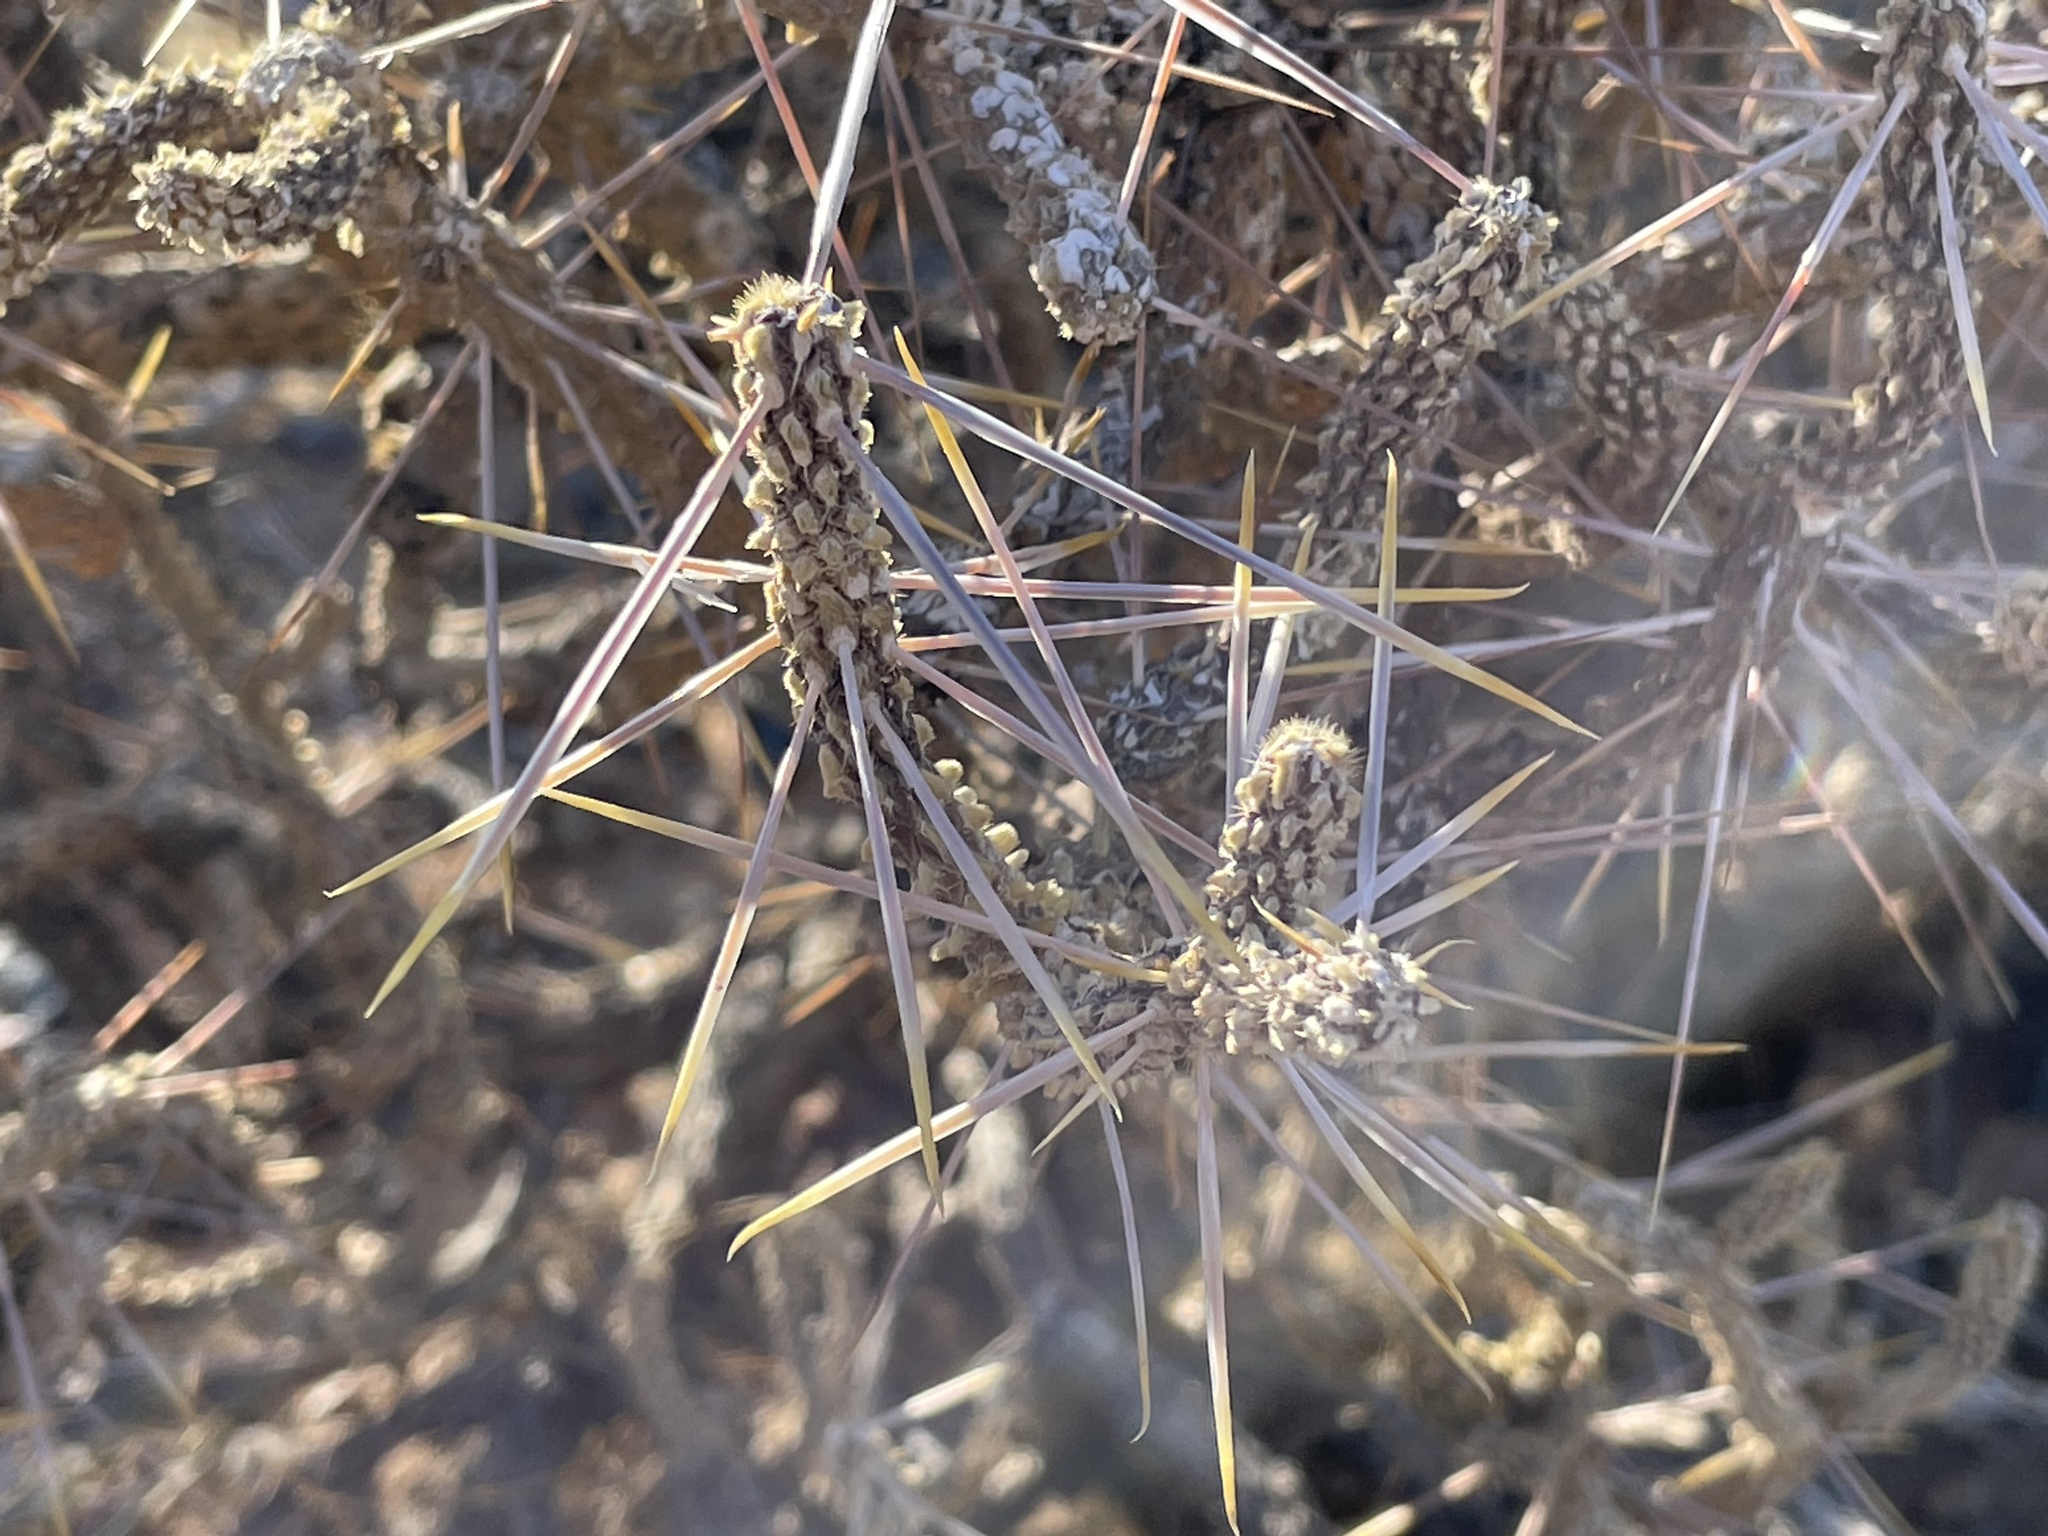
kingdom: Plantae
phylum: Tracheophyta
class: Magnoliopsida
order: Caryophyllales
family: Cactaceae
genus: Cylindropuntia
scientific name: Cylindropuntia ramosissima
